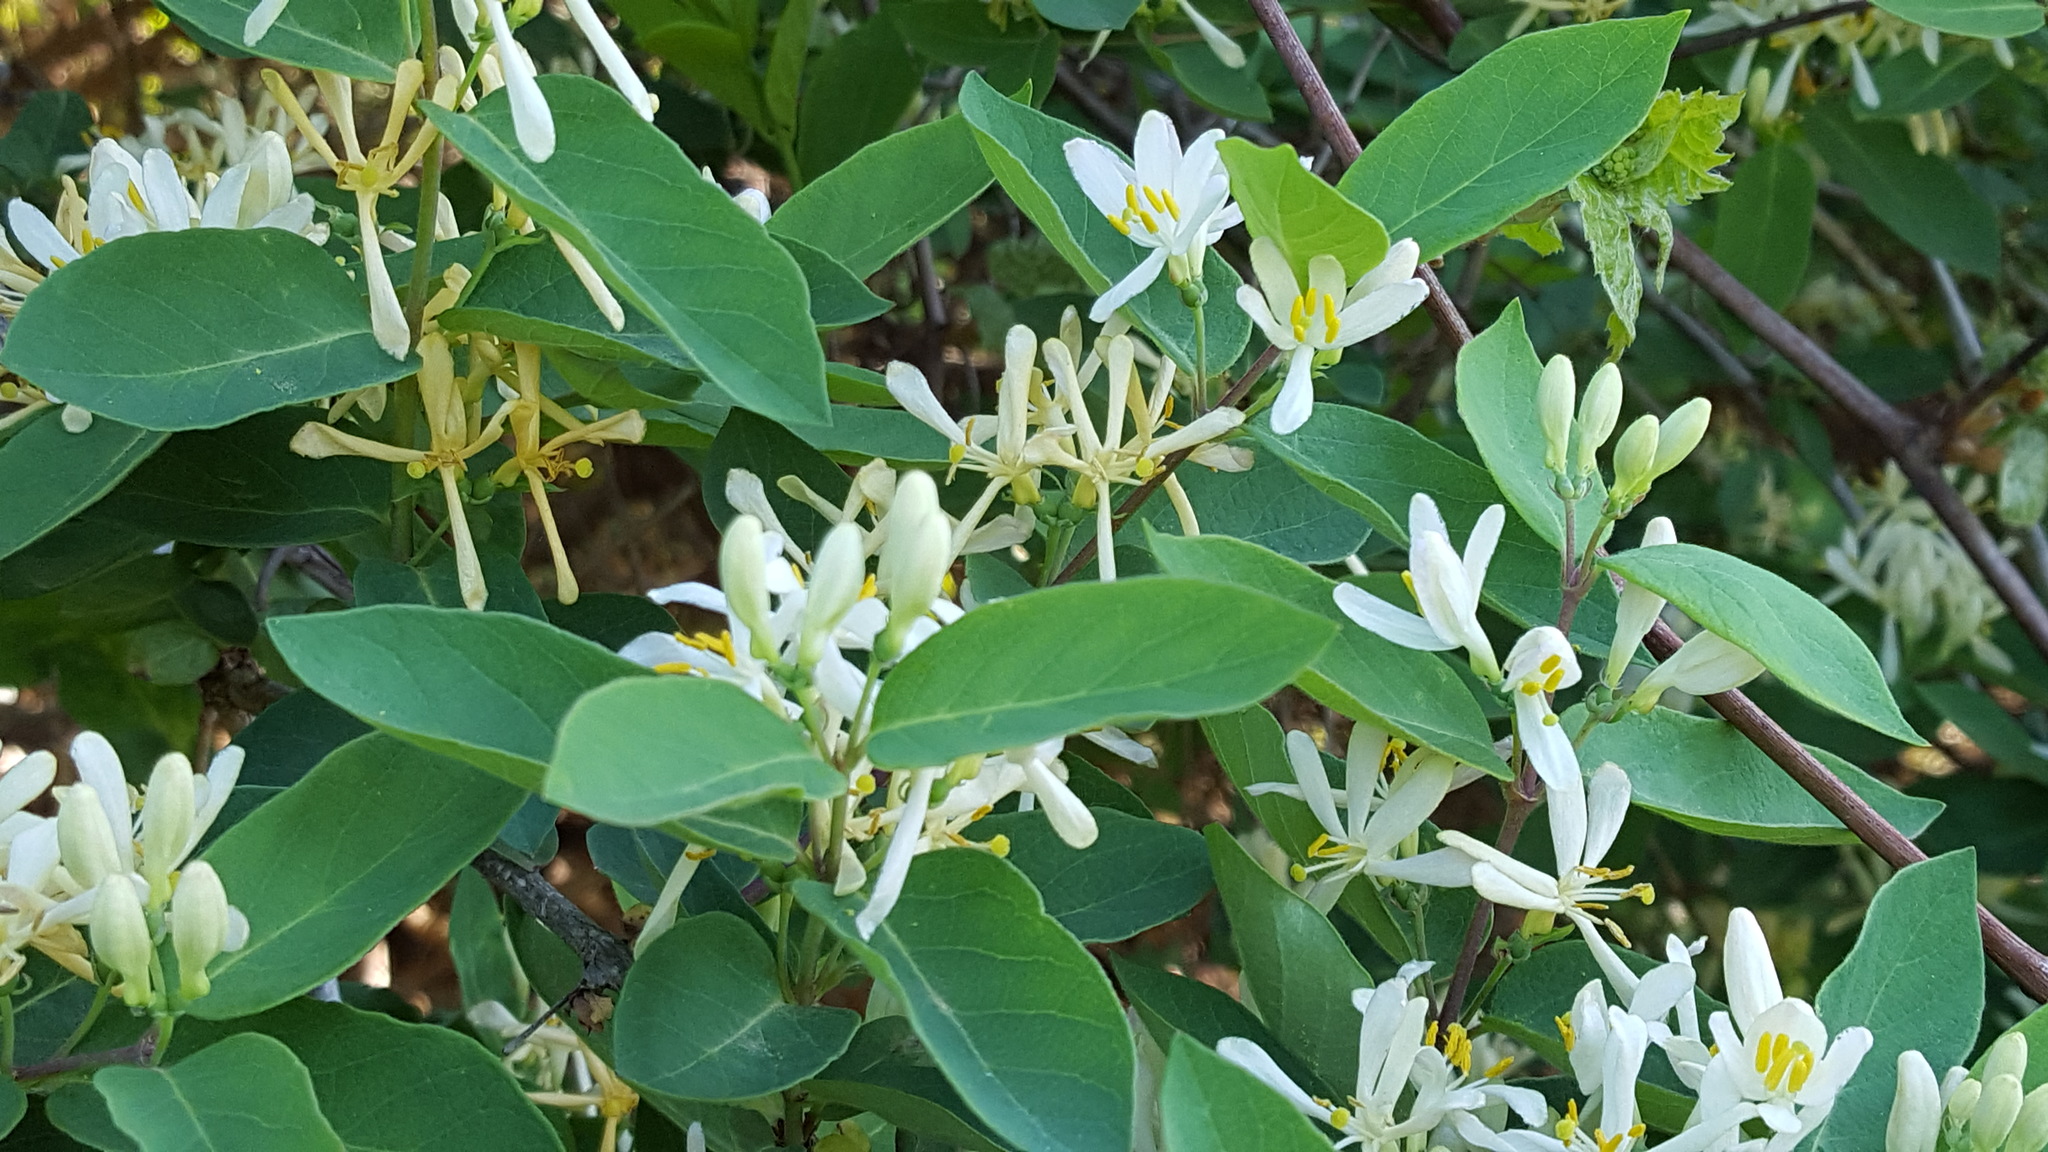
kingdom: Plantae
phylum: Tracheophyta
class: Magnoliopsida
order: Dipsacales
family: Caprifoliaceae
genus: Lonicera
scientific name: Lonicera morrowii
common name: Morrow's honeysuckle
